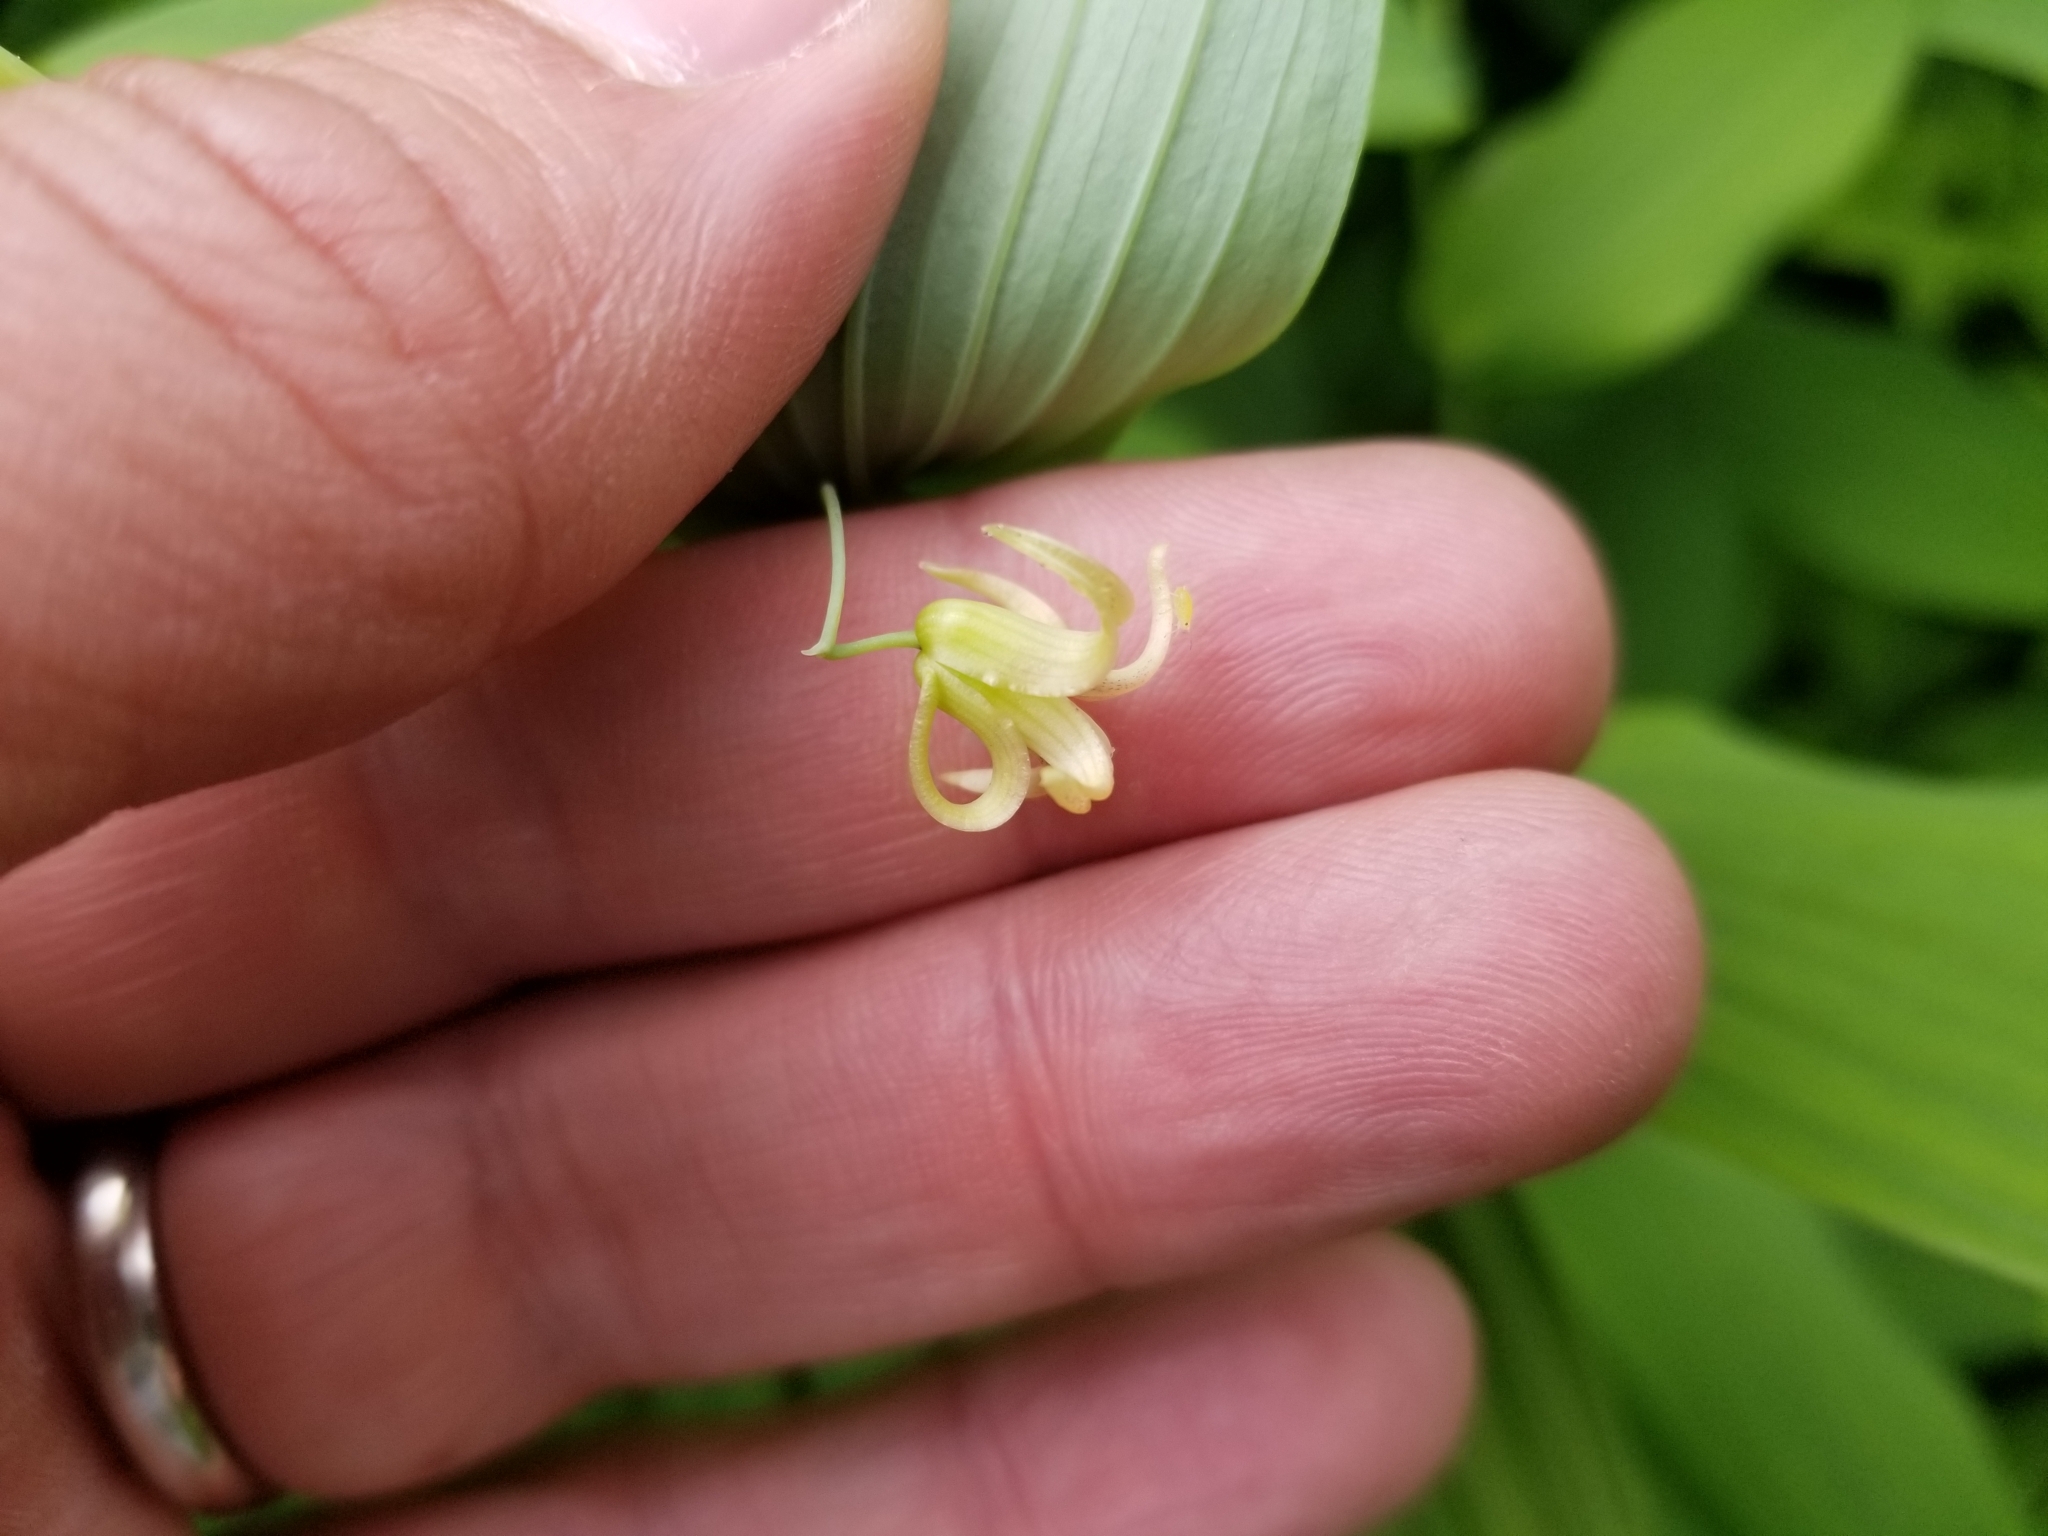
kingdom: Plantae
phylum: Tracheophyta
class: Liliopsida
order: Liliales
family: Liliaceae
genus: Streptopus
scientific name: Streptopus amplexifolius
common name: Clasp twisted stalk
